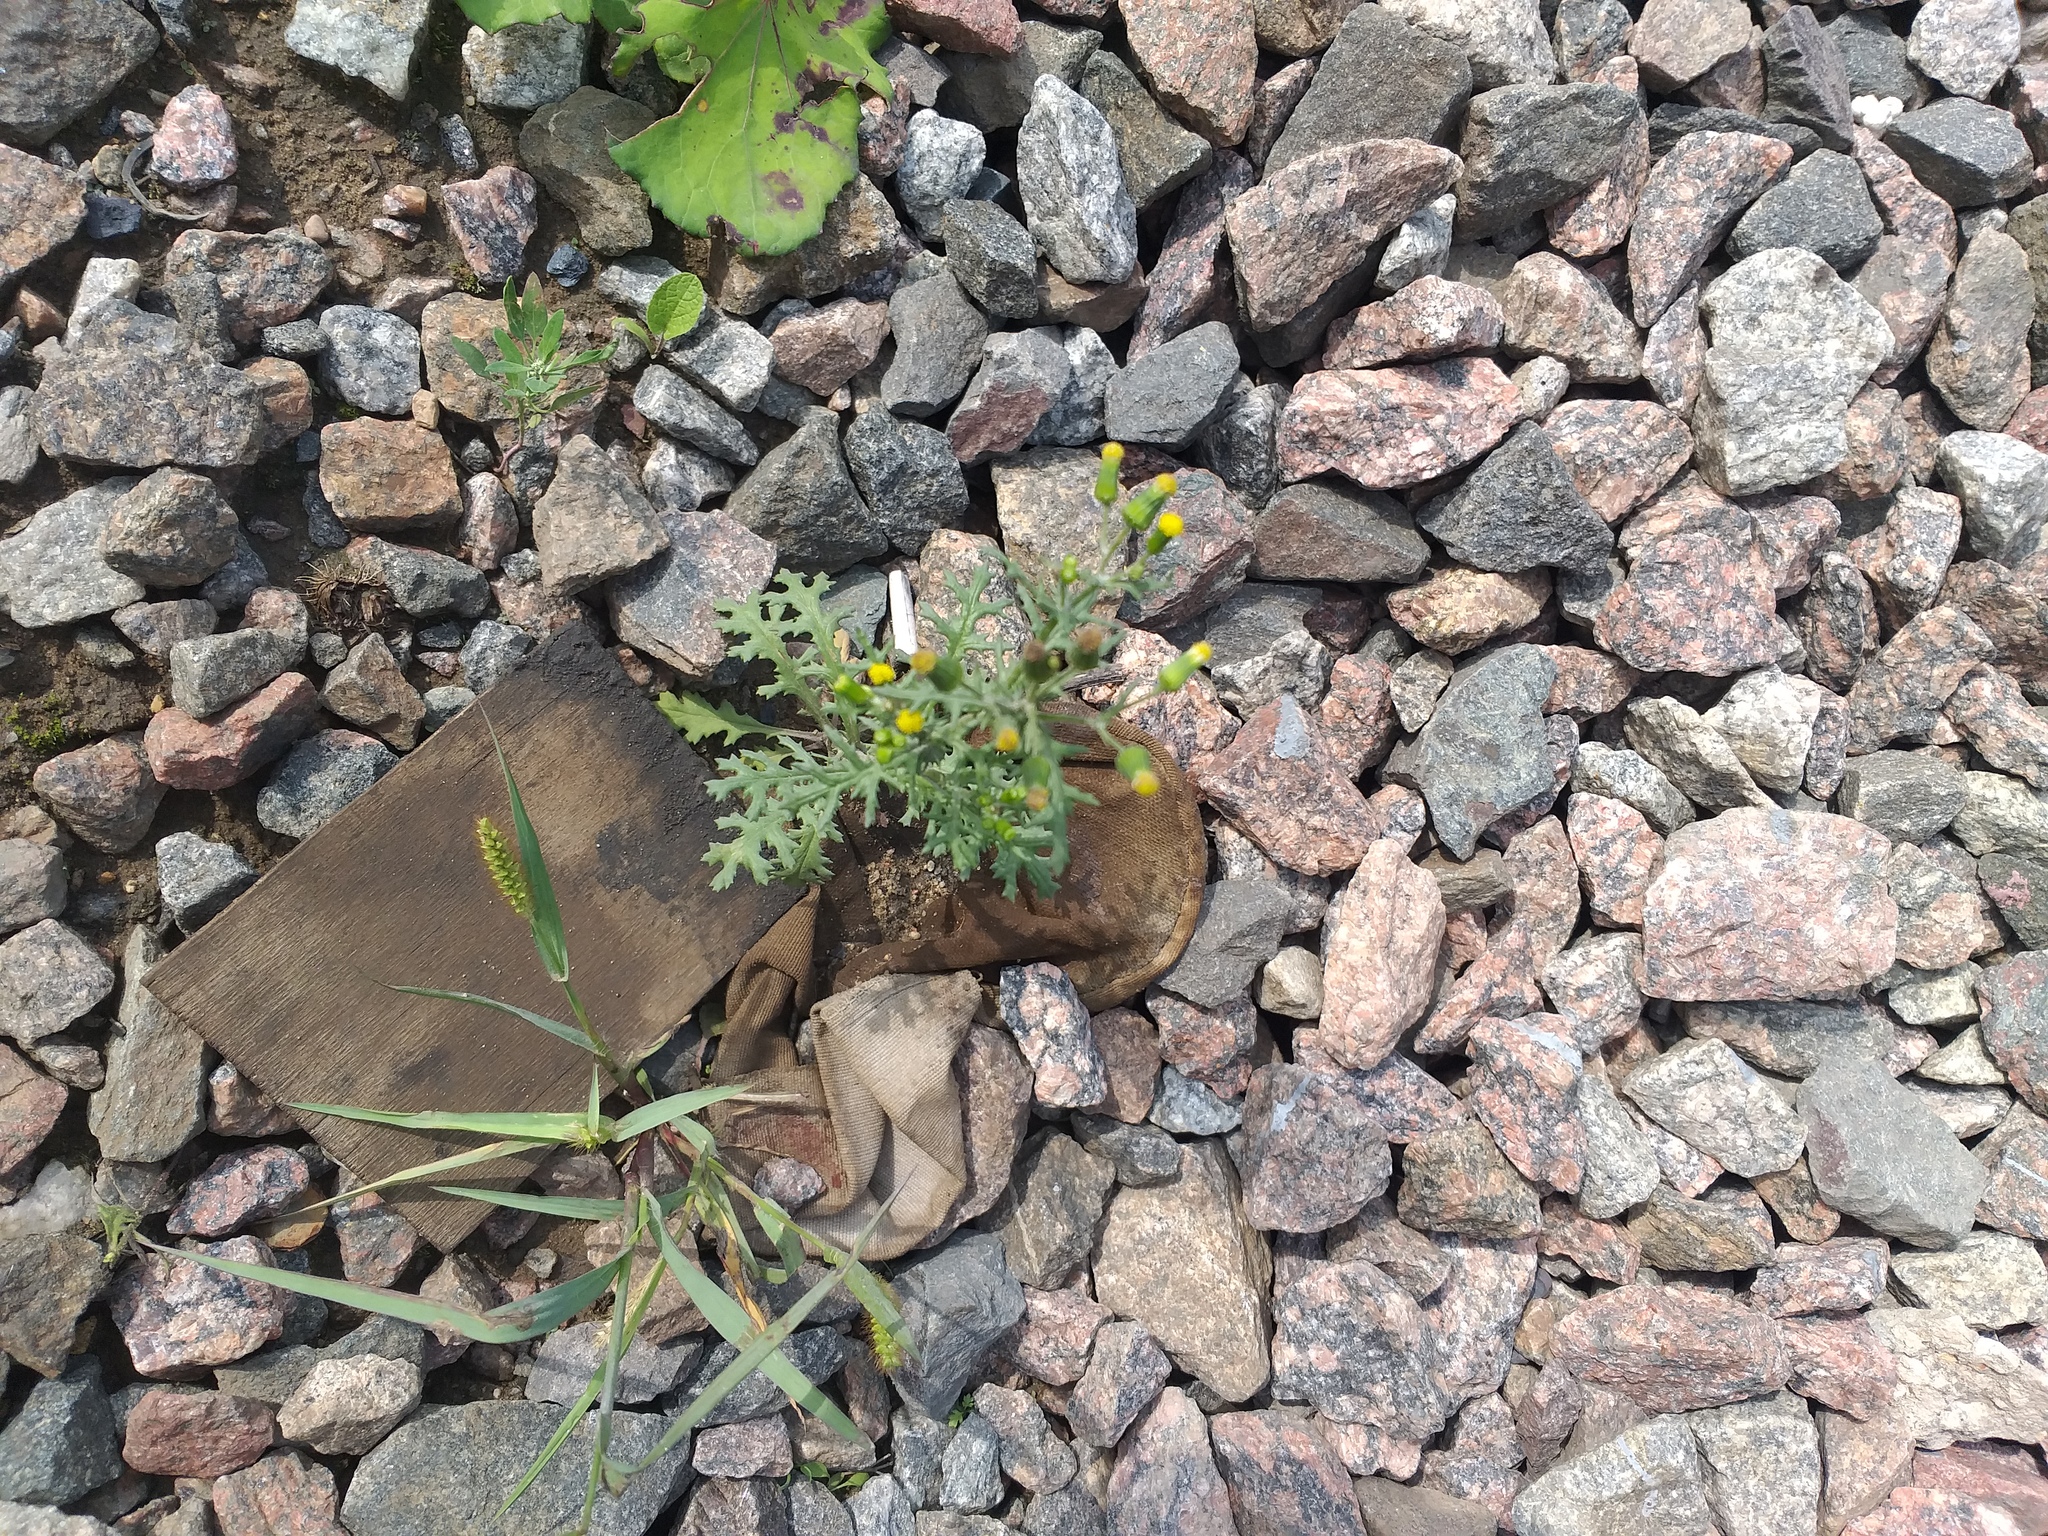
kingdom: Plantae
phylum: Tracheophyta
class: Magnoliopsida
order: Asterales
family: Asteraceae
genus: Senecio
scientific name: Senecio vulgaris
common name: Old-man-in-the-spring
